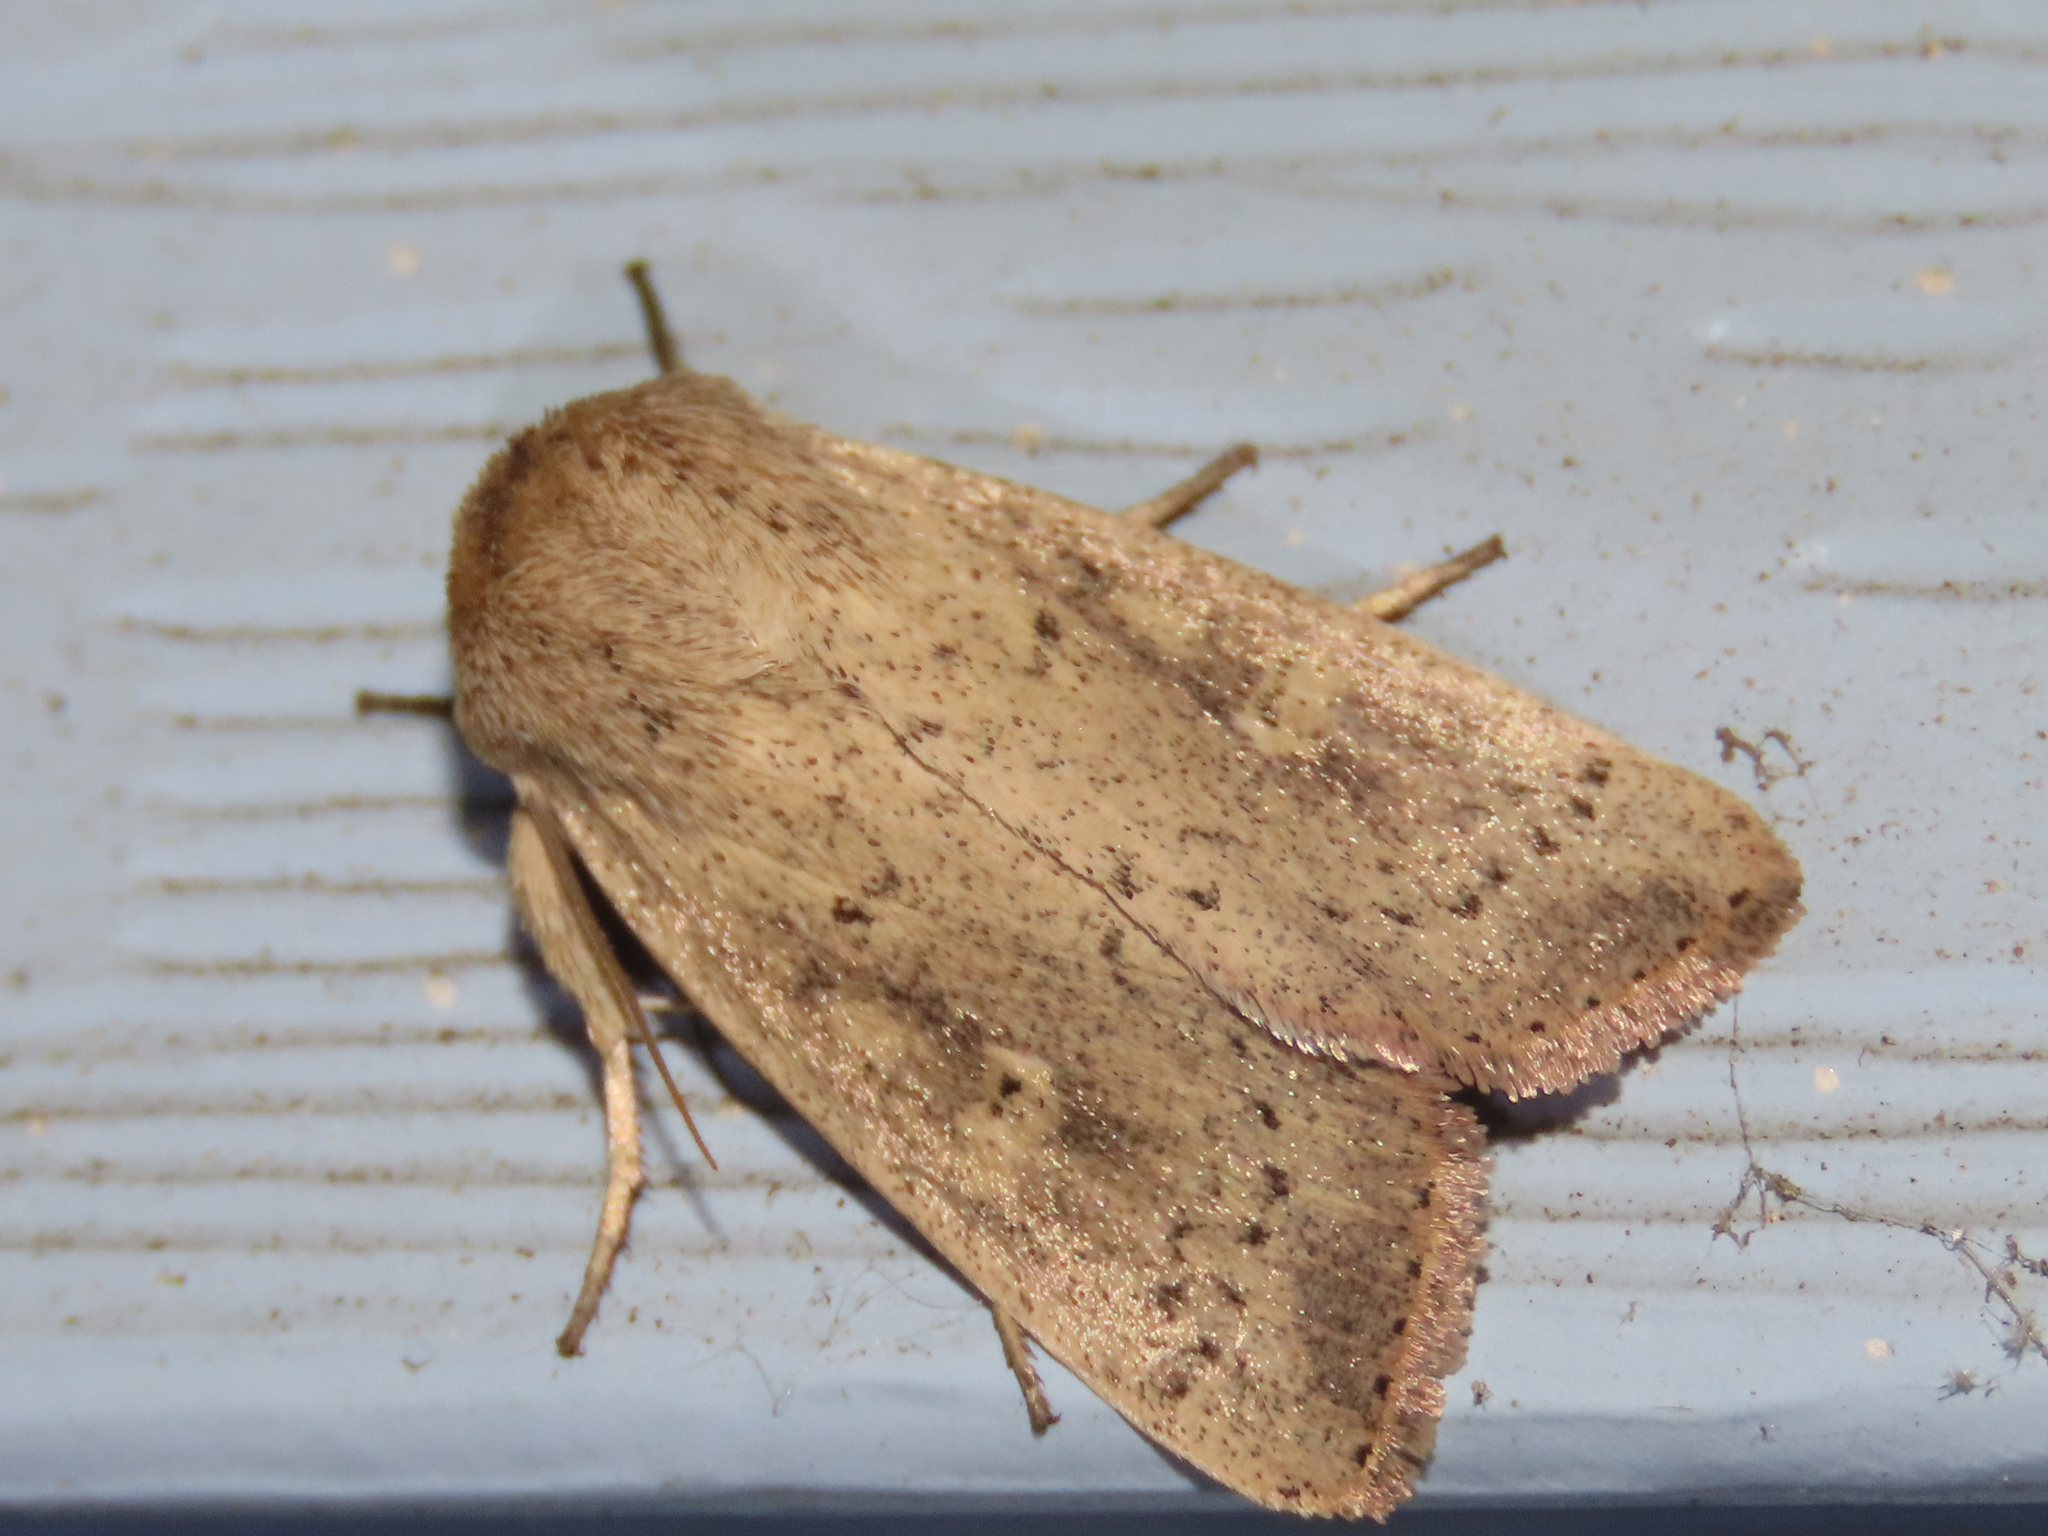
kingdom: Animalia
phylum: Arthropoda
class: Insecta
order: Lepidoptera
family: Noctuidae
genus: Leucania
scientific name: Leucania ursula
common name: Ursula wainscot
